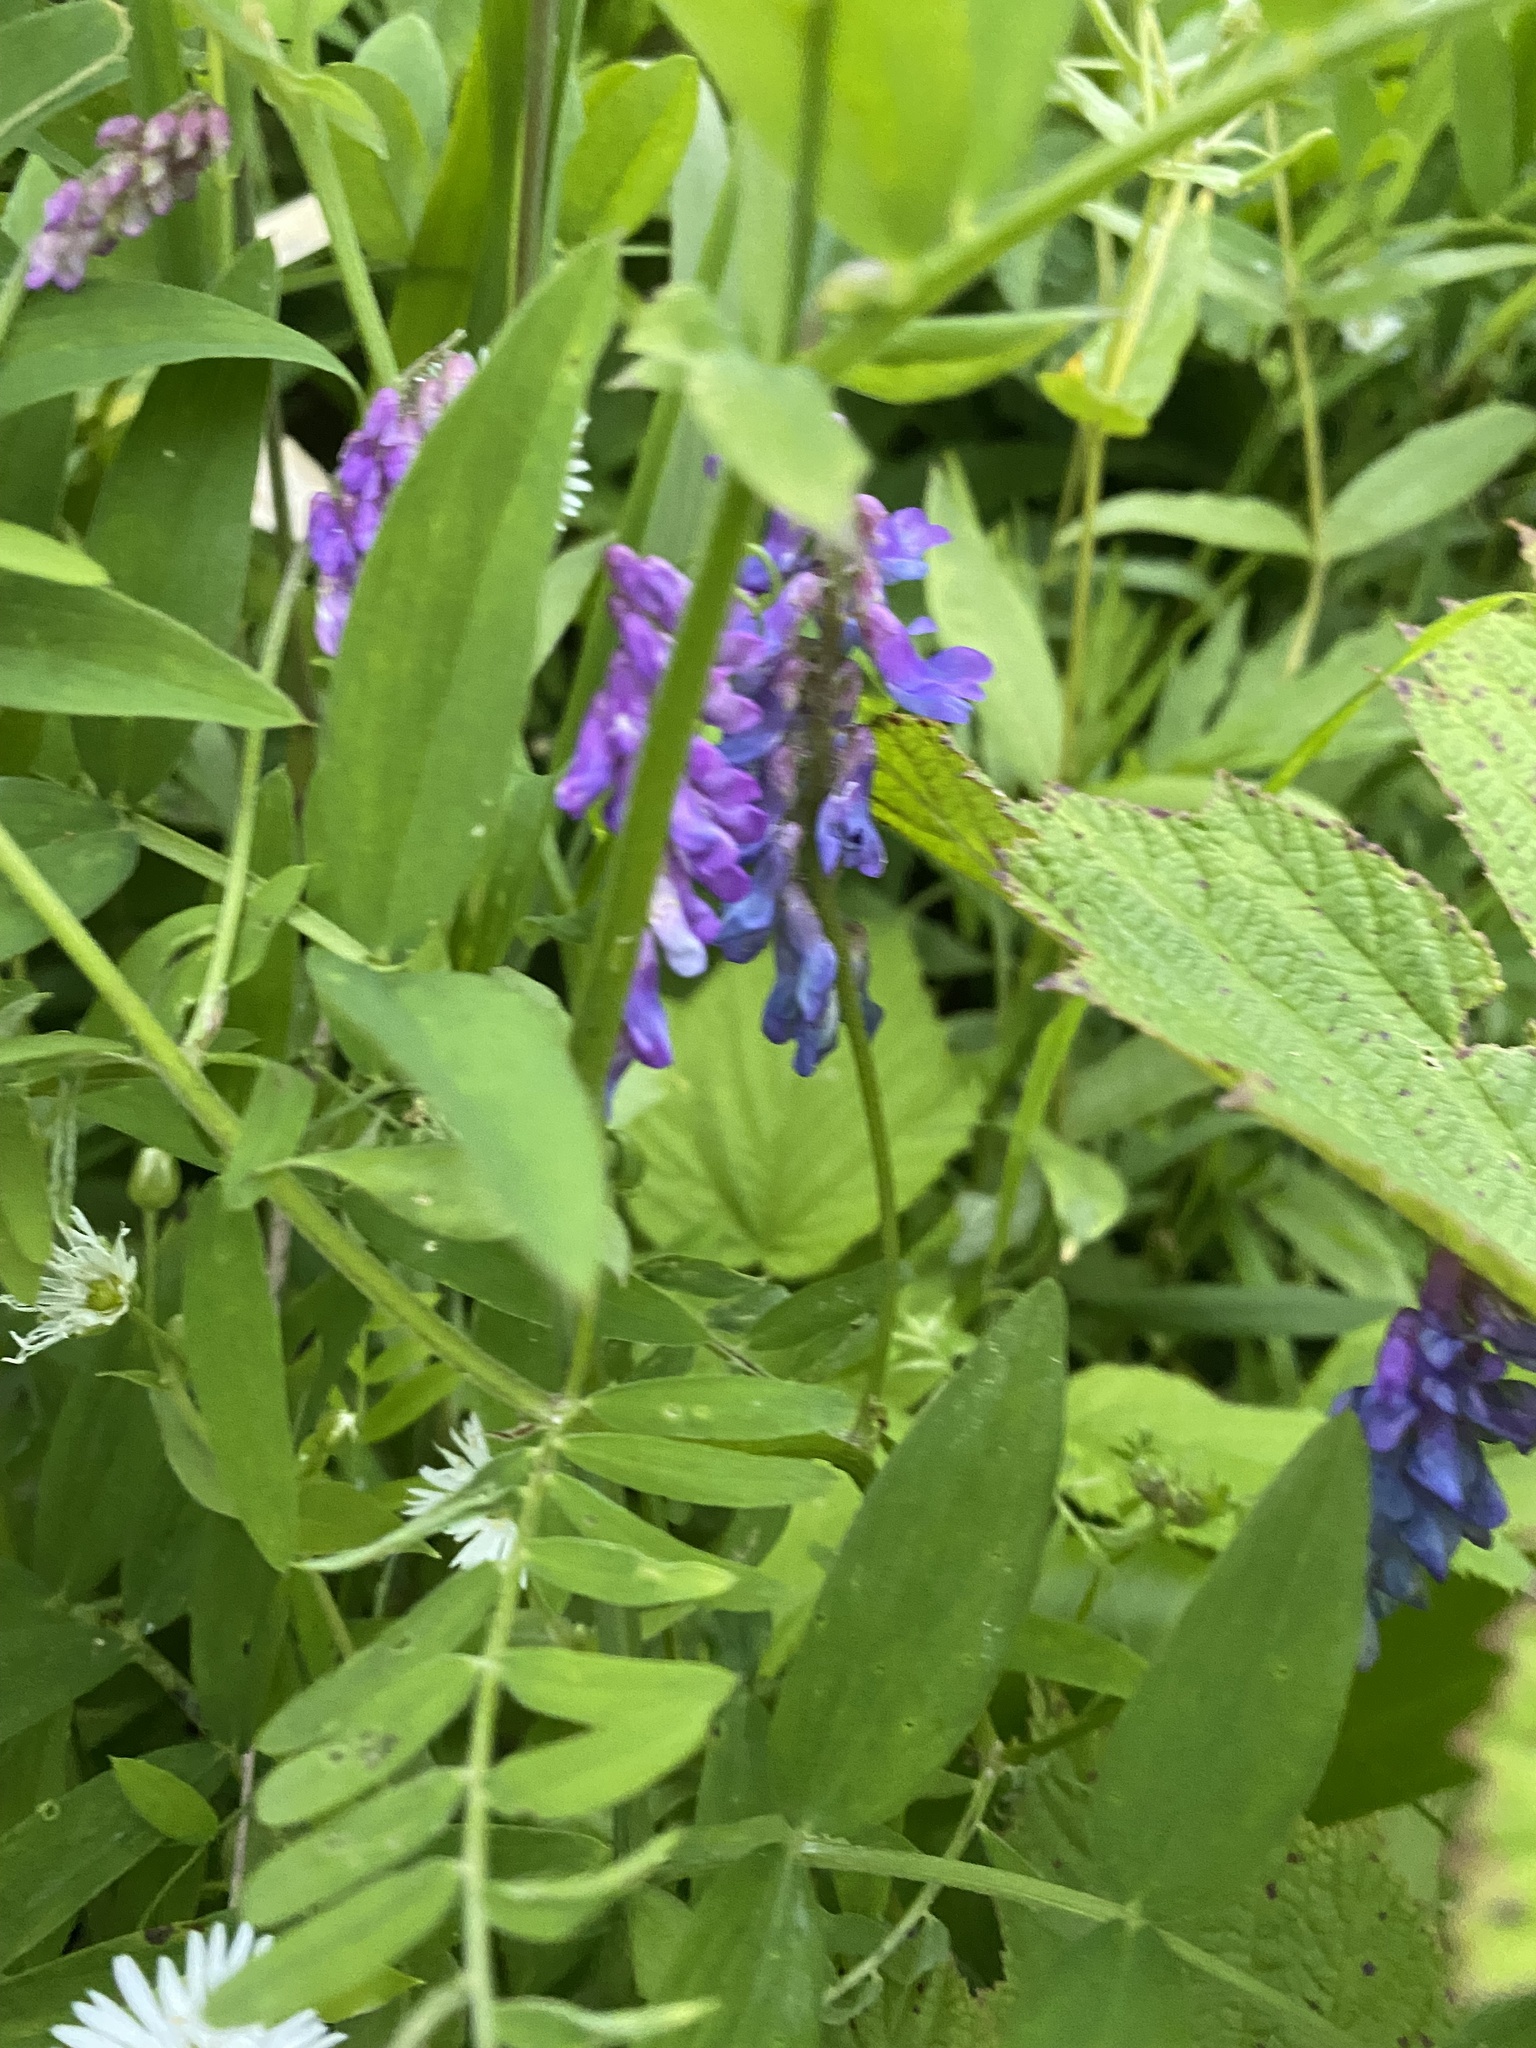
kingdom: Plantae
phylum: Tracheophyta
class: Magnoliopsida
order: Fabales
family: Fabaceae
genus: Vicia
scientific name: Vicia cracca
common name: Bird vetch
